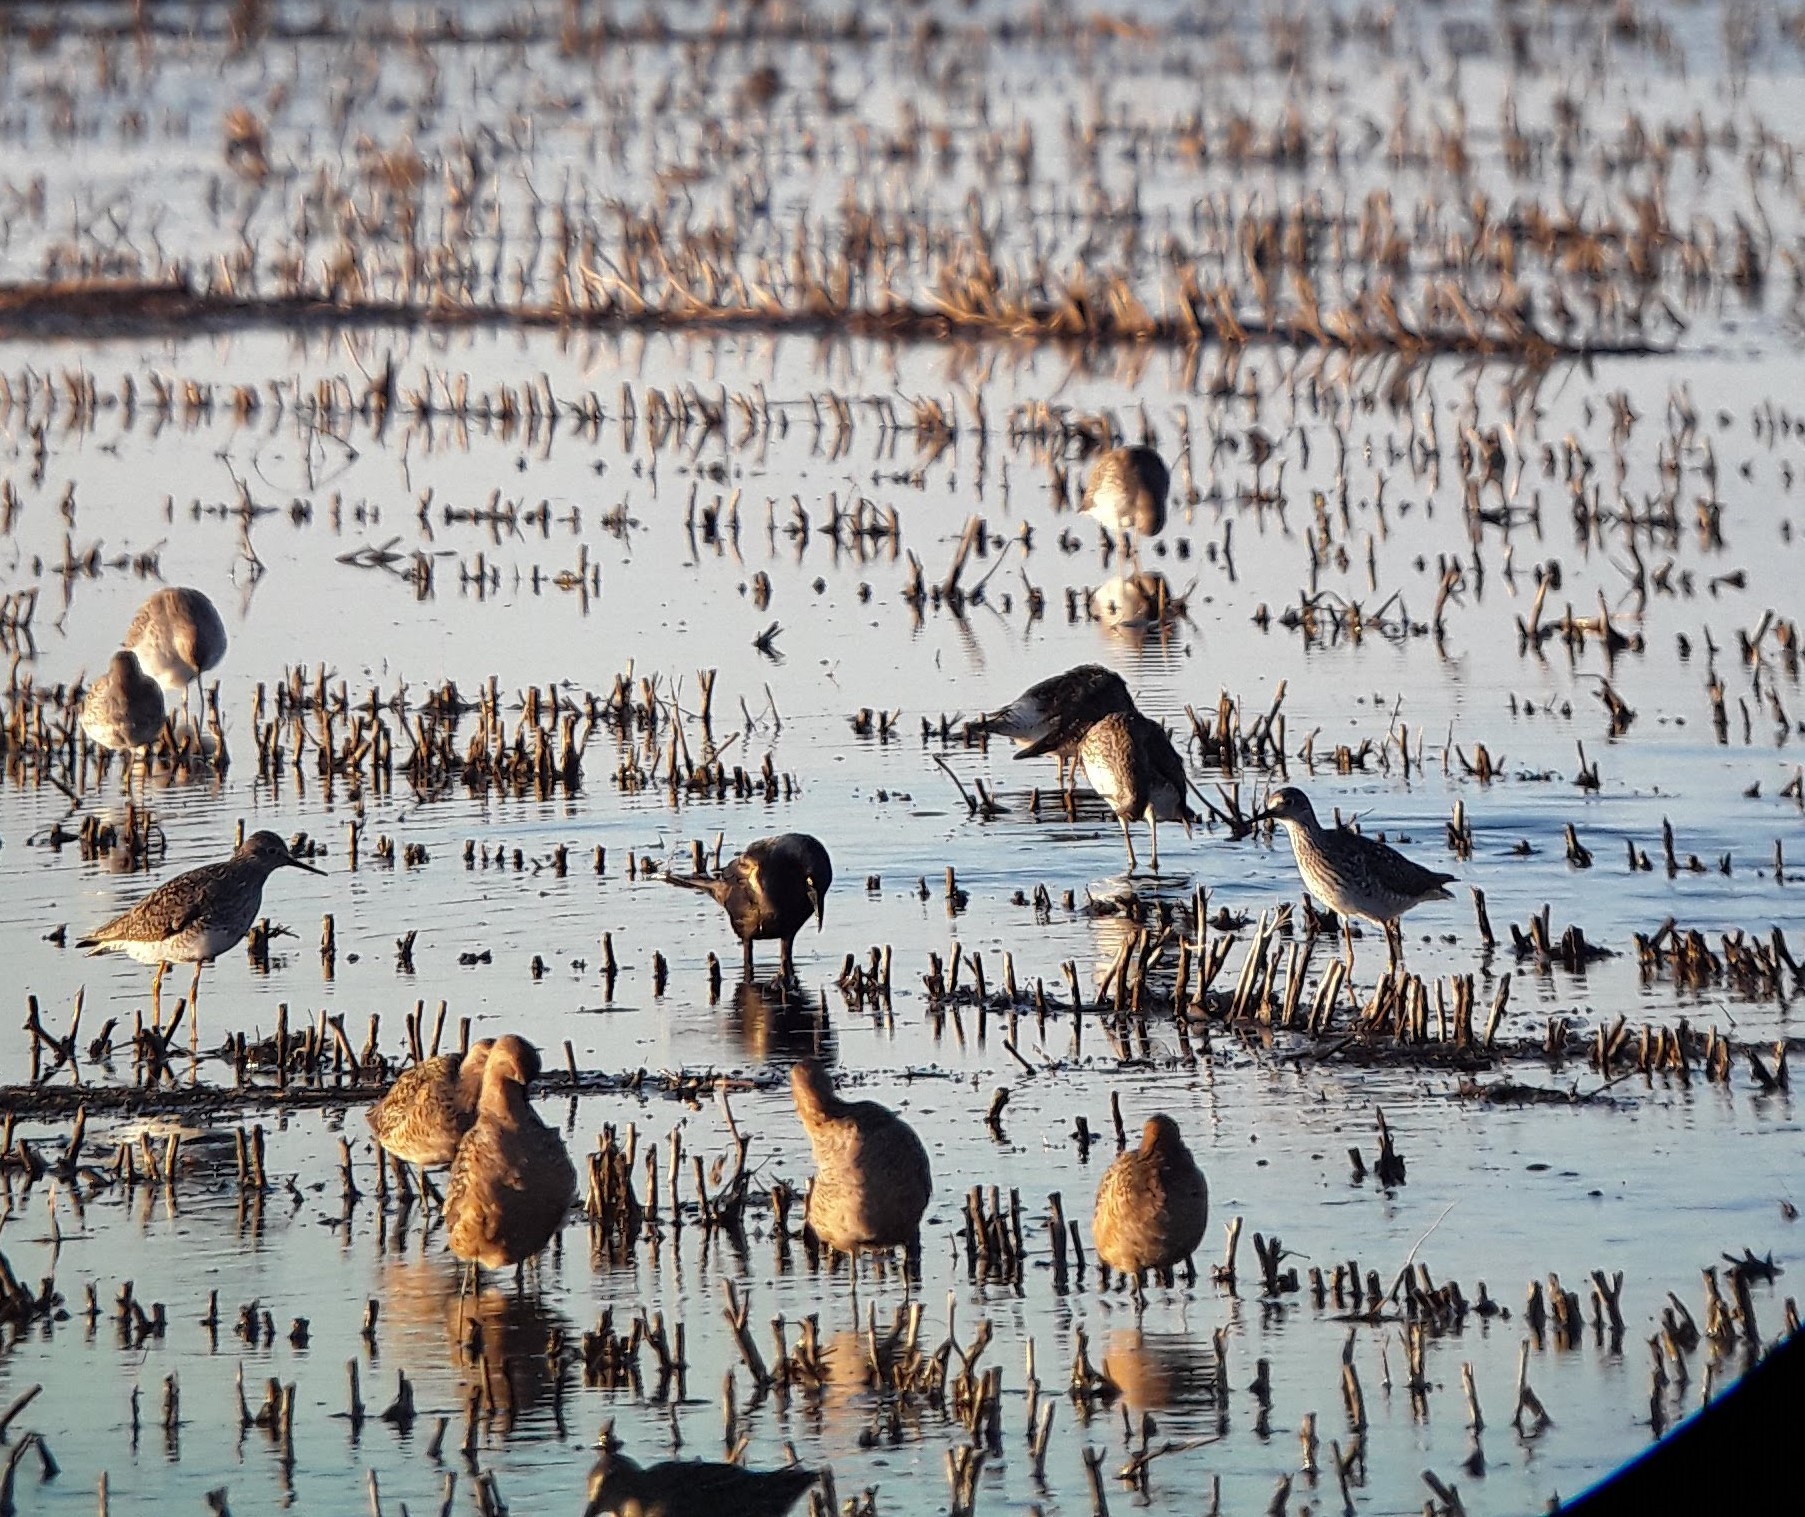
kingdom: Animalia
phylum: Chordata
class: Aves
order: Charadriiformes
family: Scolopacidae
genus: Tringa
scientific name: Tringa flavipes
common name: Lesser yellowlegs
